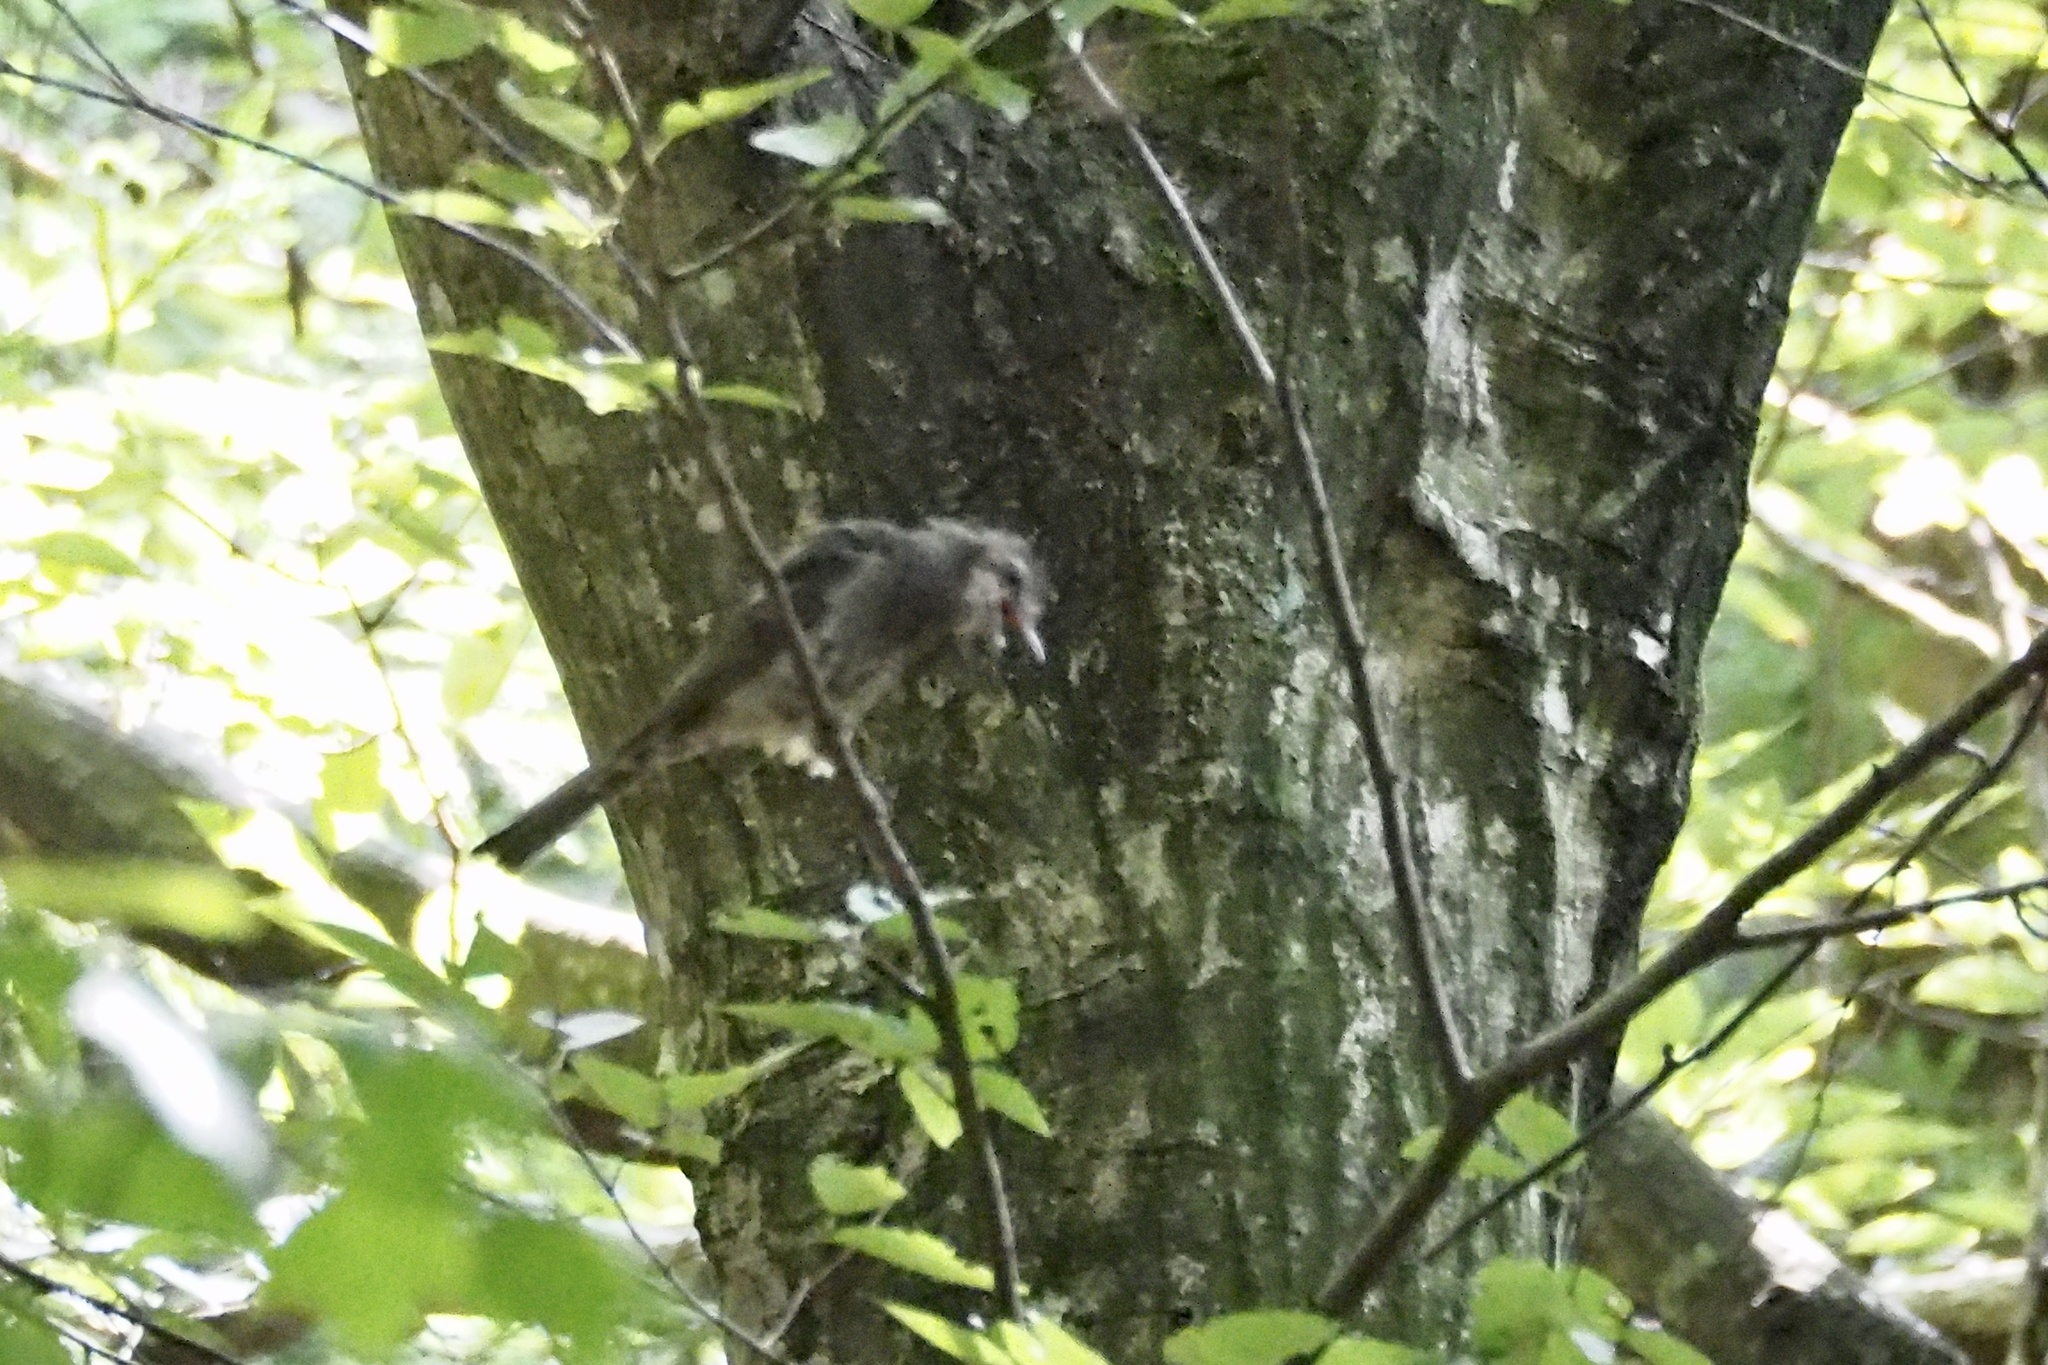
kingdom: Animalia
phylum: Chordata
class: Aves
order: Passeriformes
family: Pycnonotidae
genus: Hypsipetes
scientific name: Hypsipetes amaurotis
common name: Brown-eared bulbul
